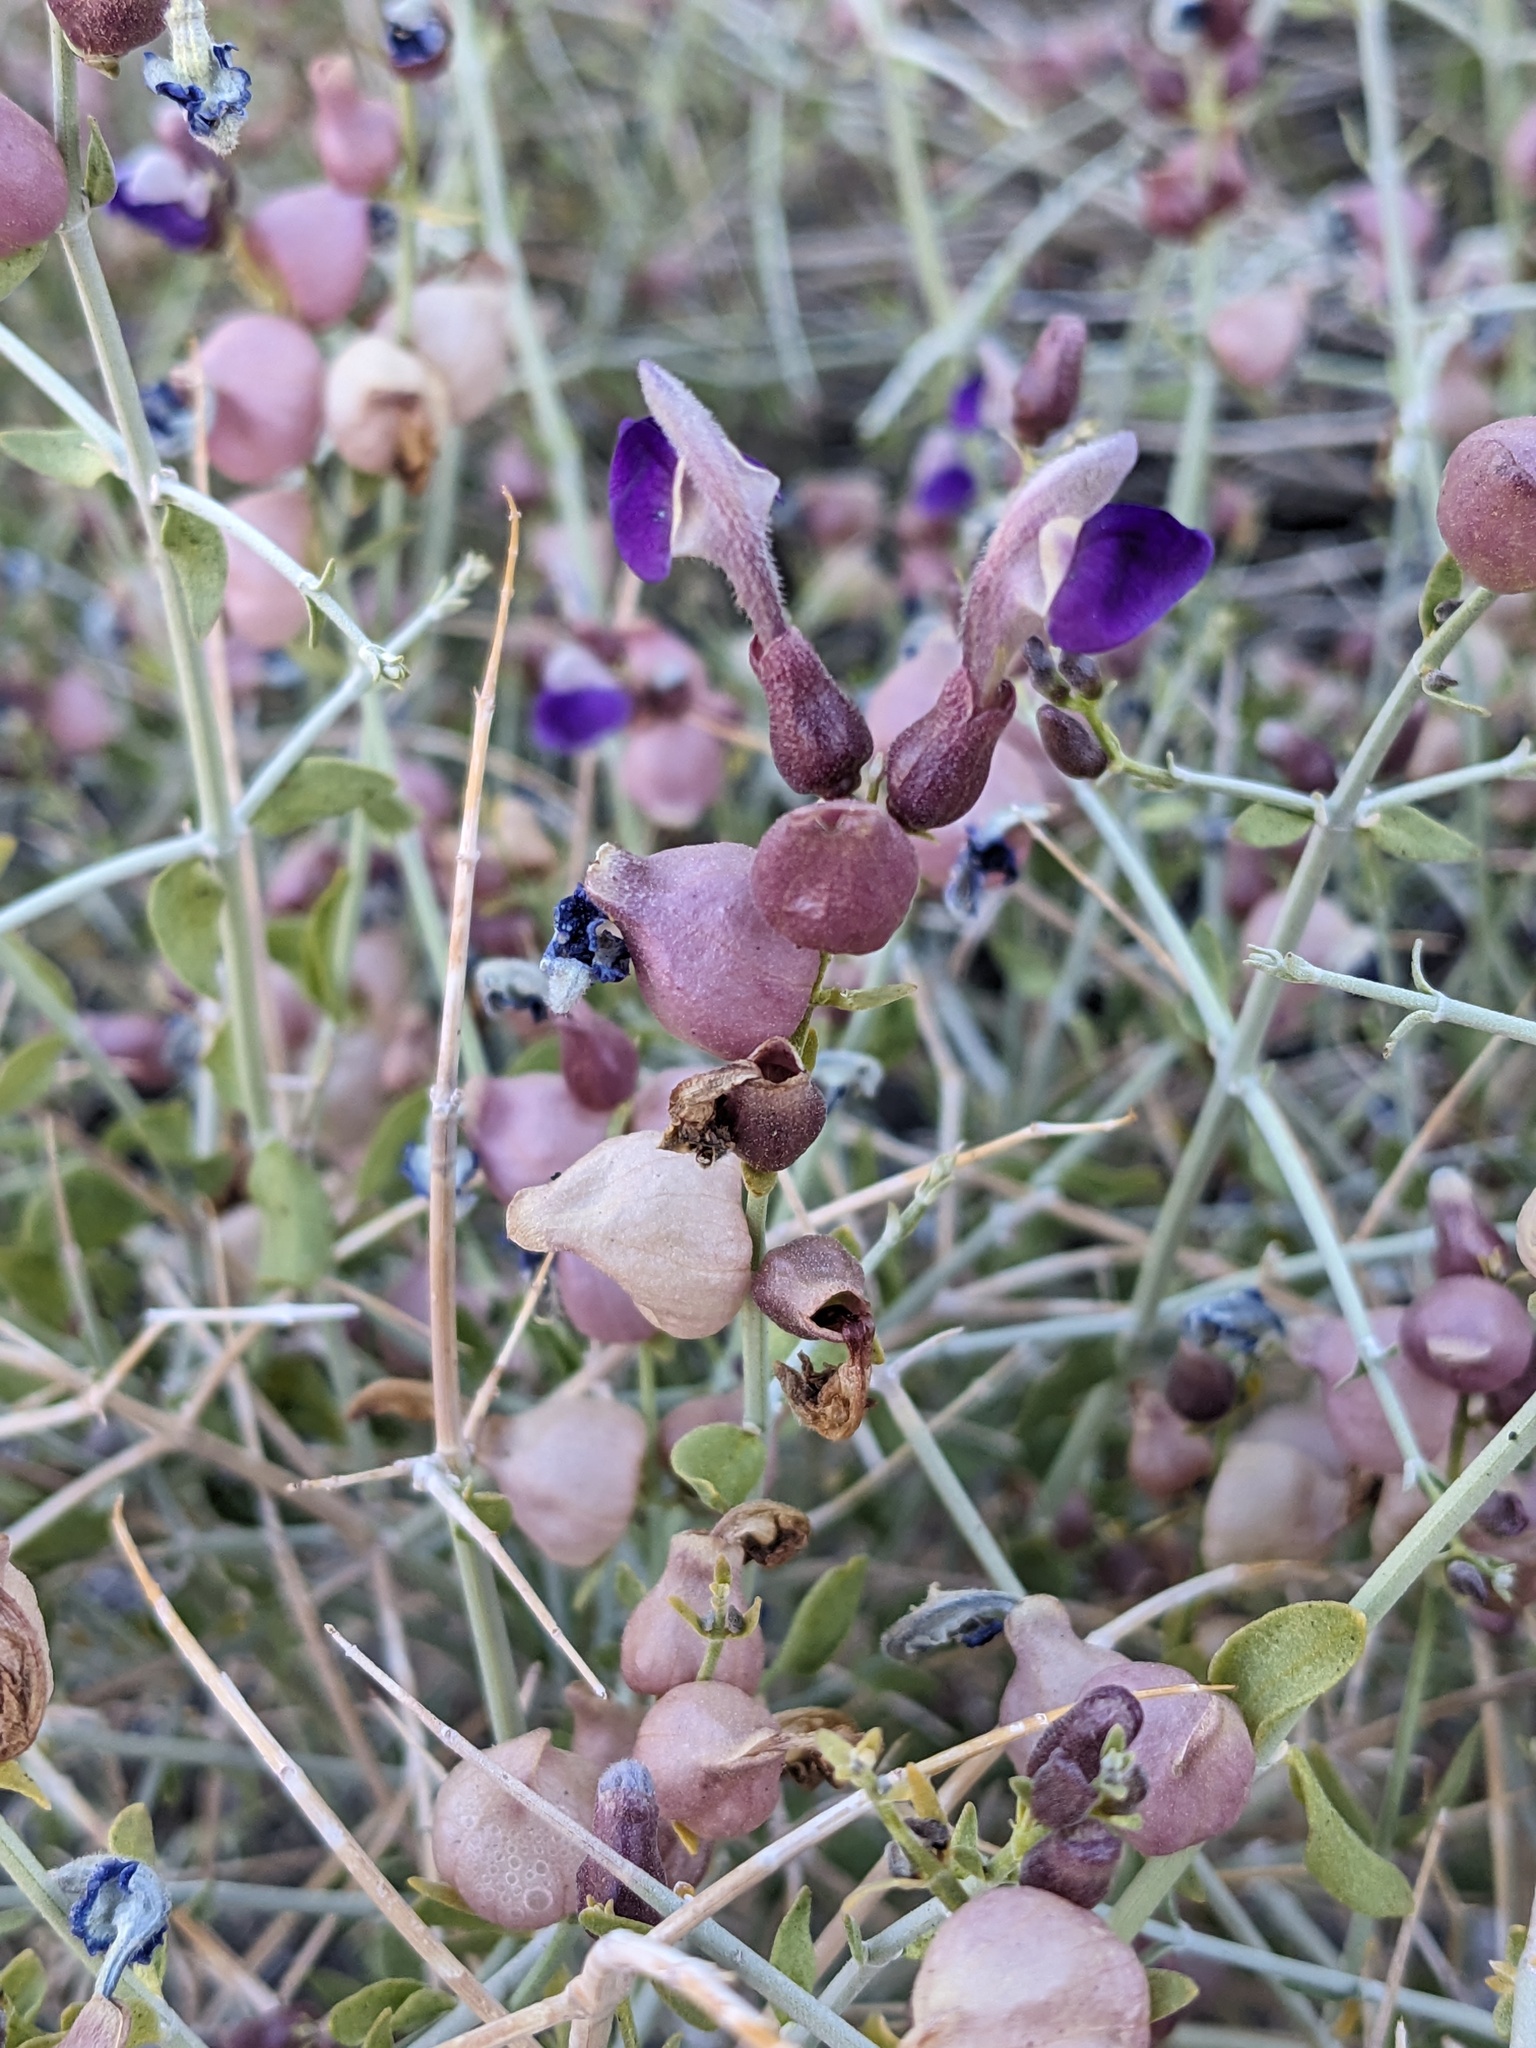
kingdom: Plantae
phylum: Tracheophyta
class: Magnoliopsida
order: Lamiales
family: Lamiaceae
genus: Scutellaria
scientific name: Scutellaria mexicana
